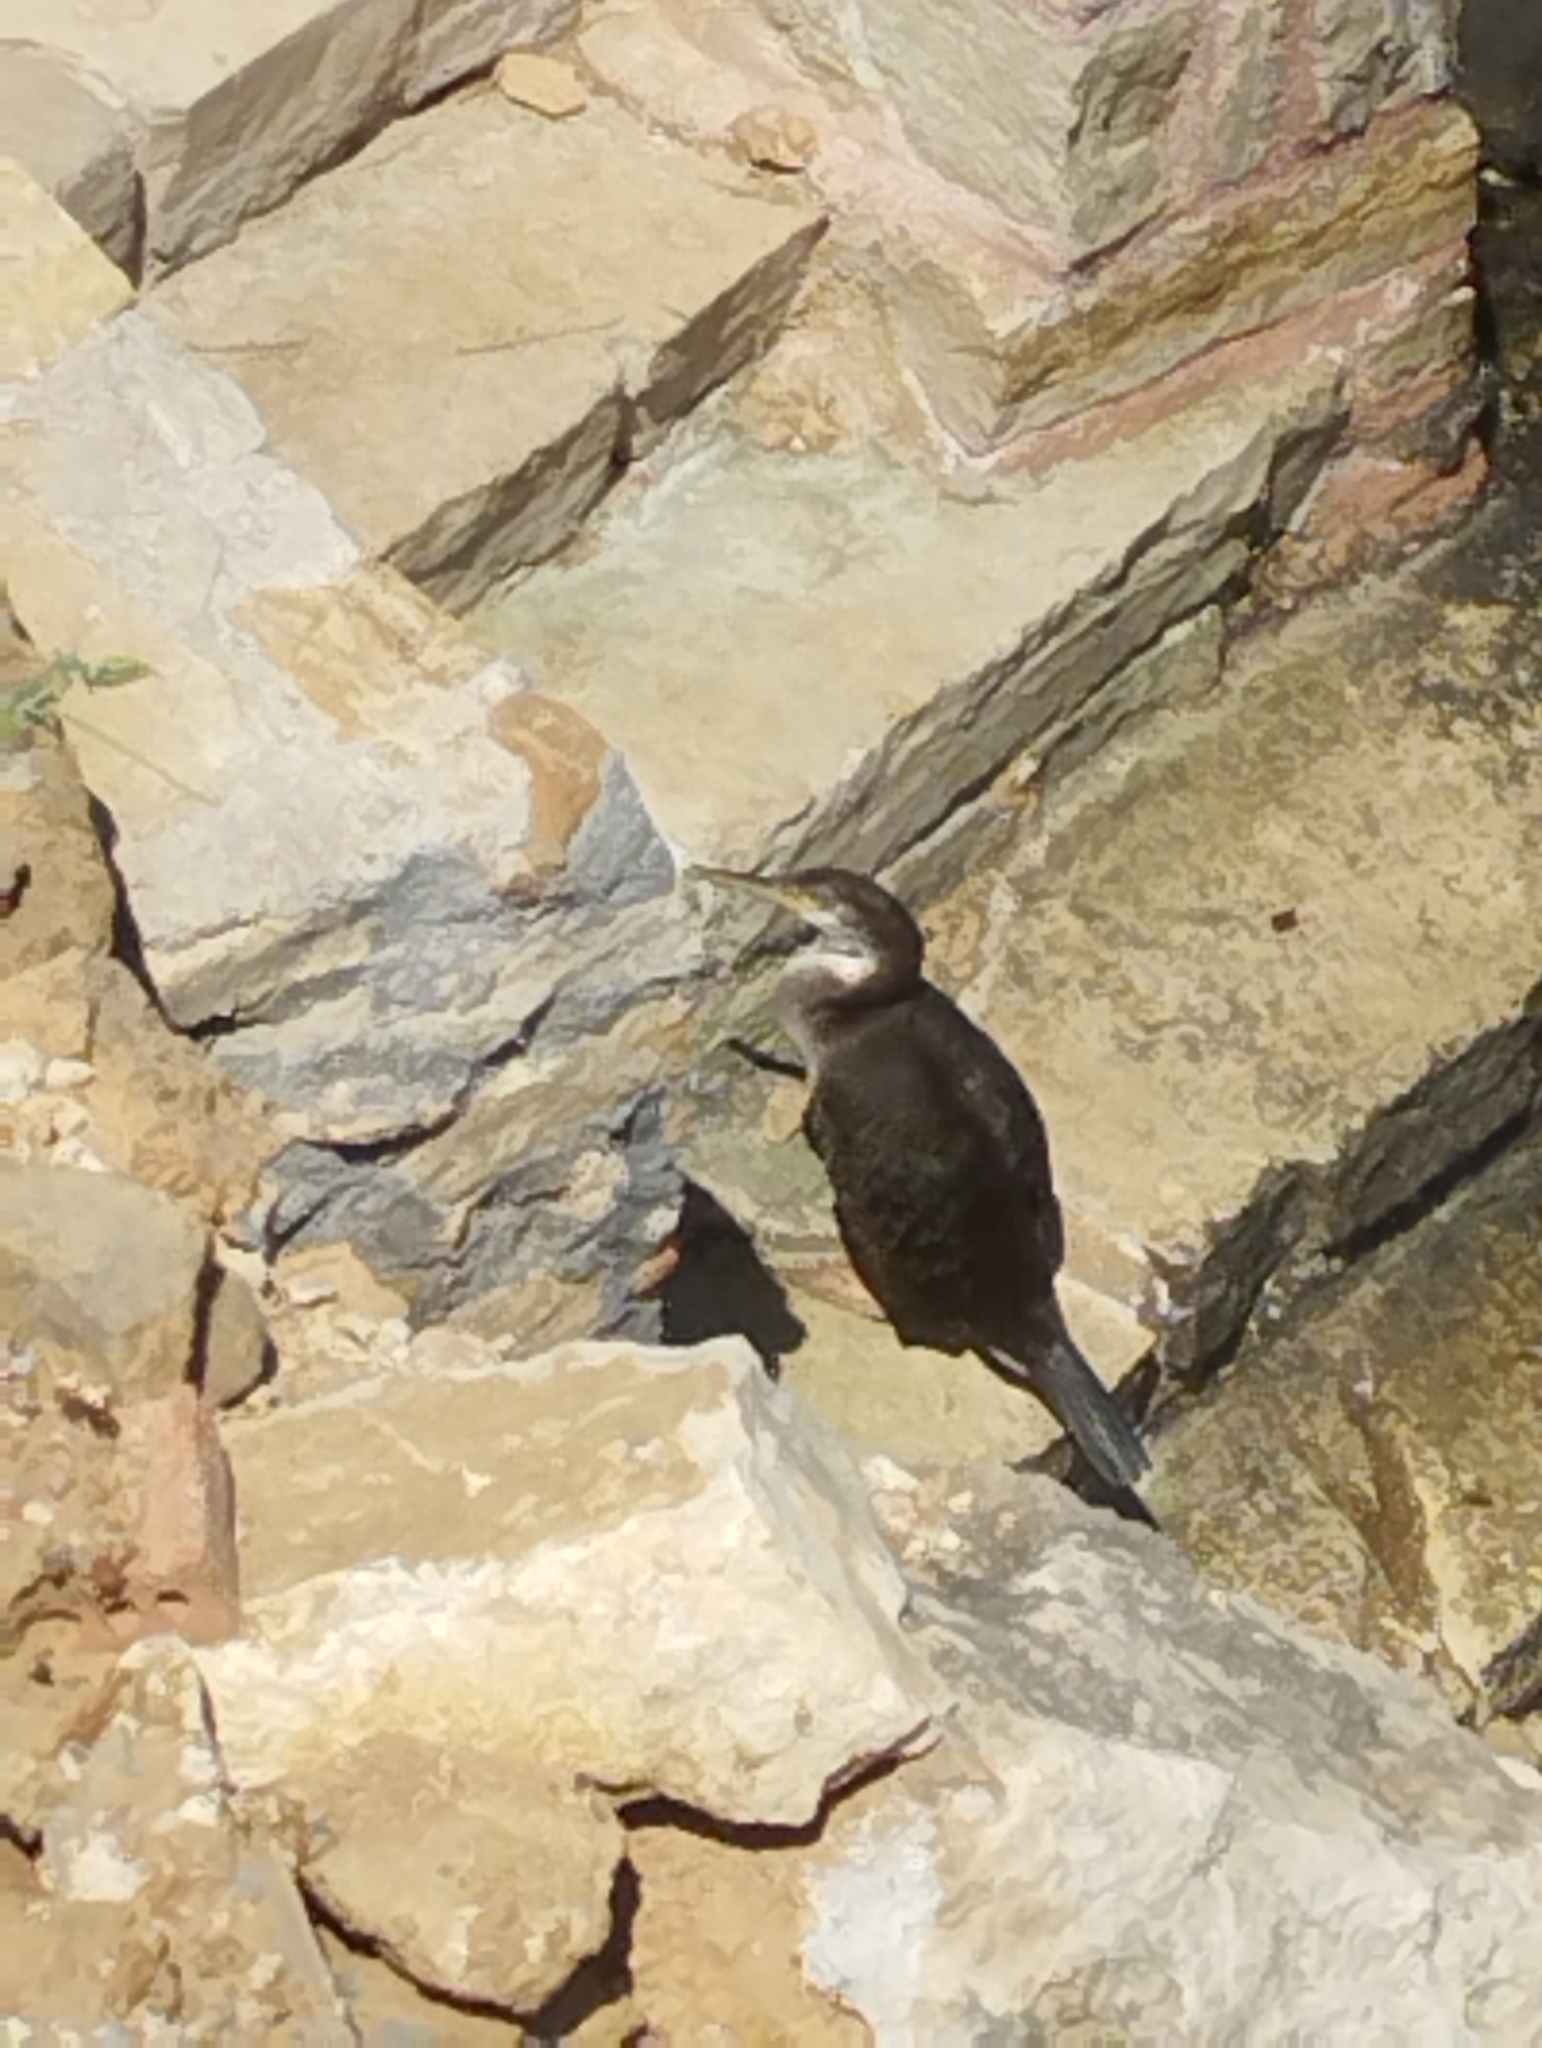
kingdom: Animalia
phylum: Chordata
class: Aves
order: Suliformes
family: Phalacrocoracidae
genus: Phalacrocorax
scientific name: Phalacrocorax aristotelis
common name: European shag
